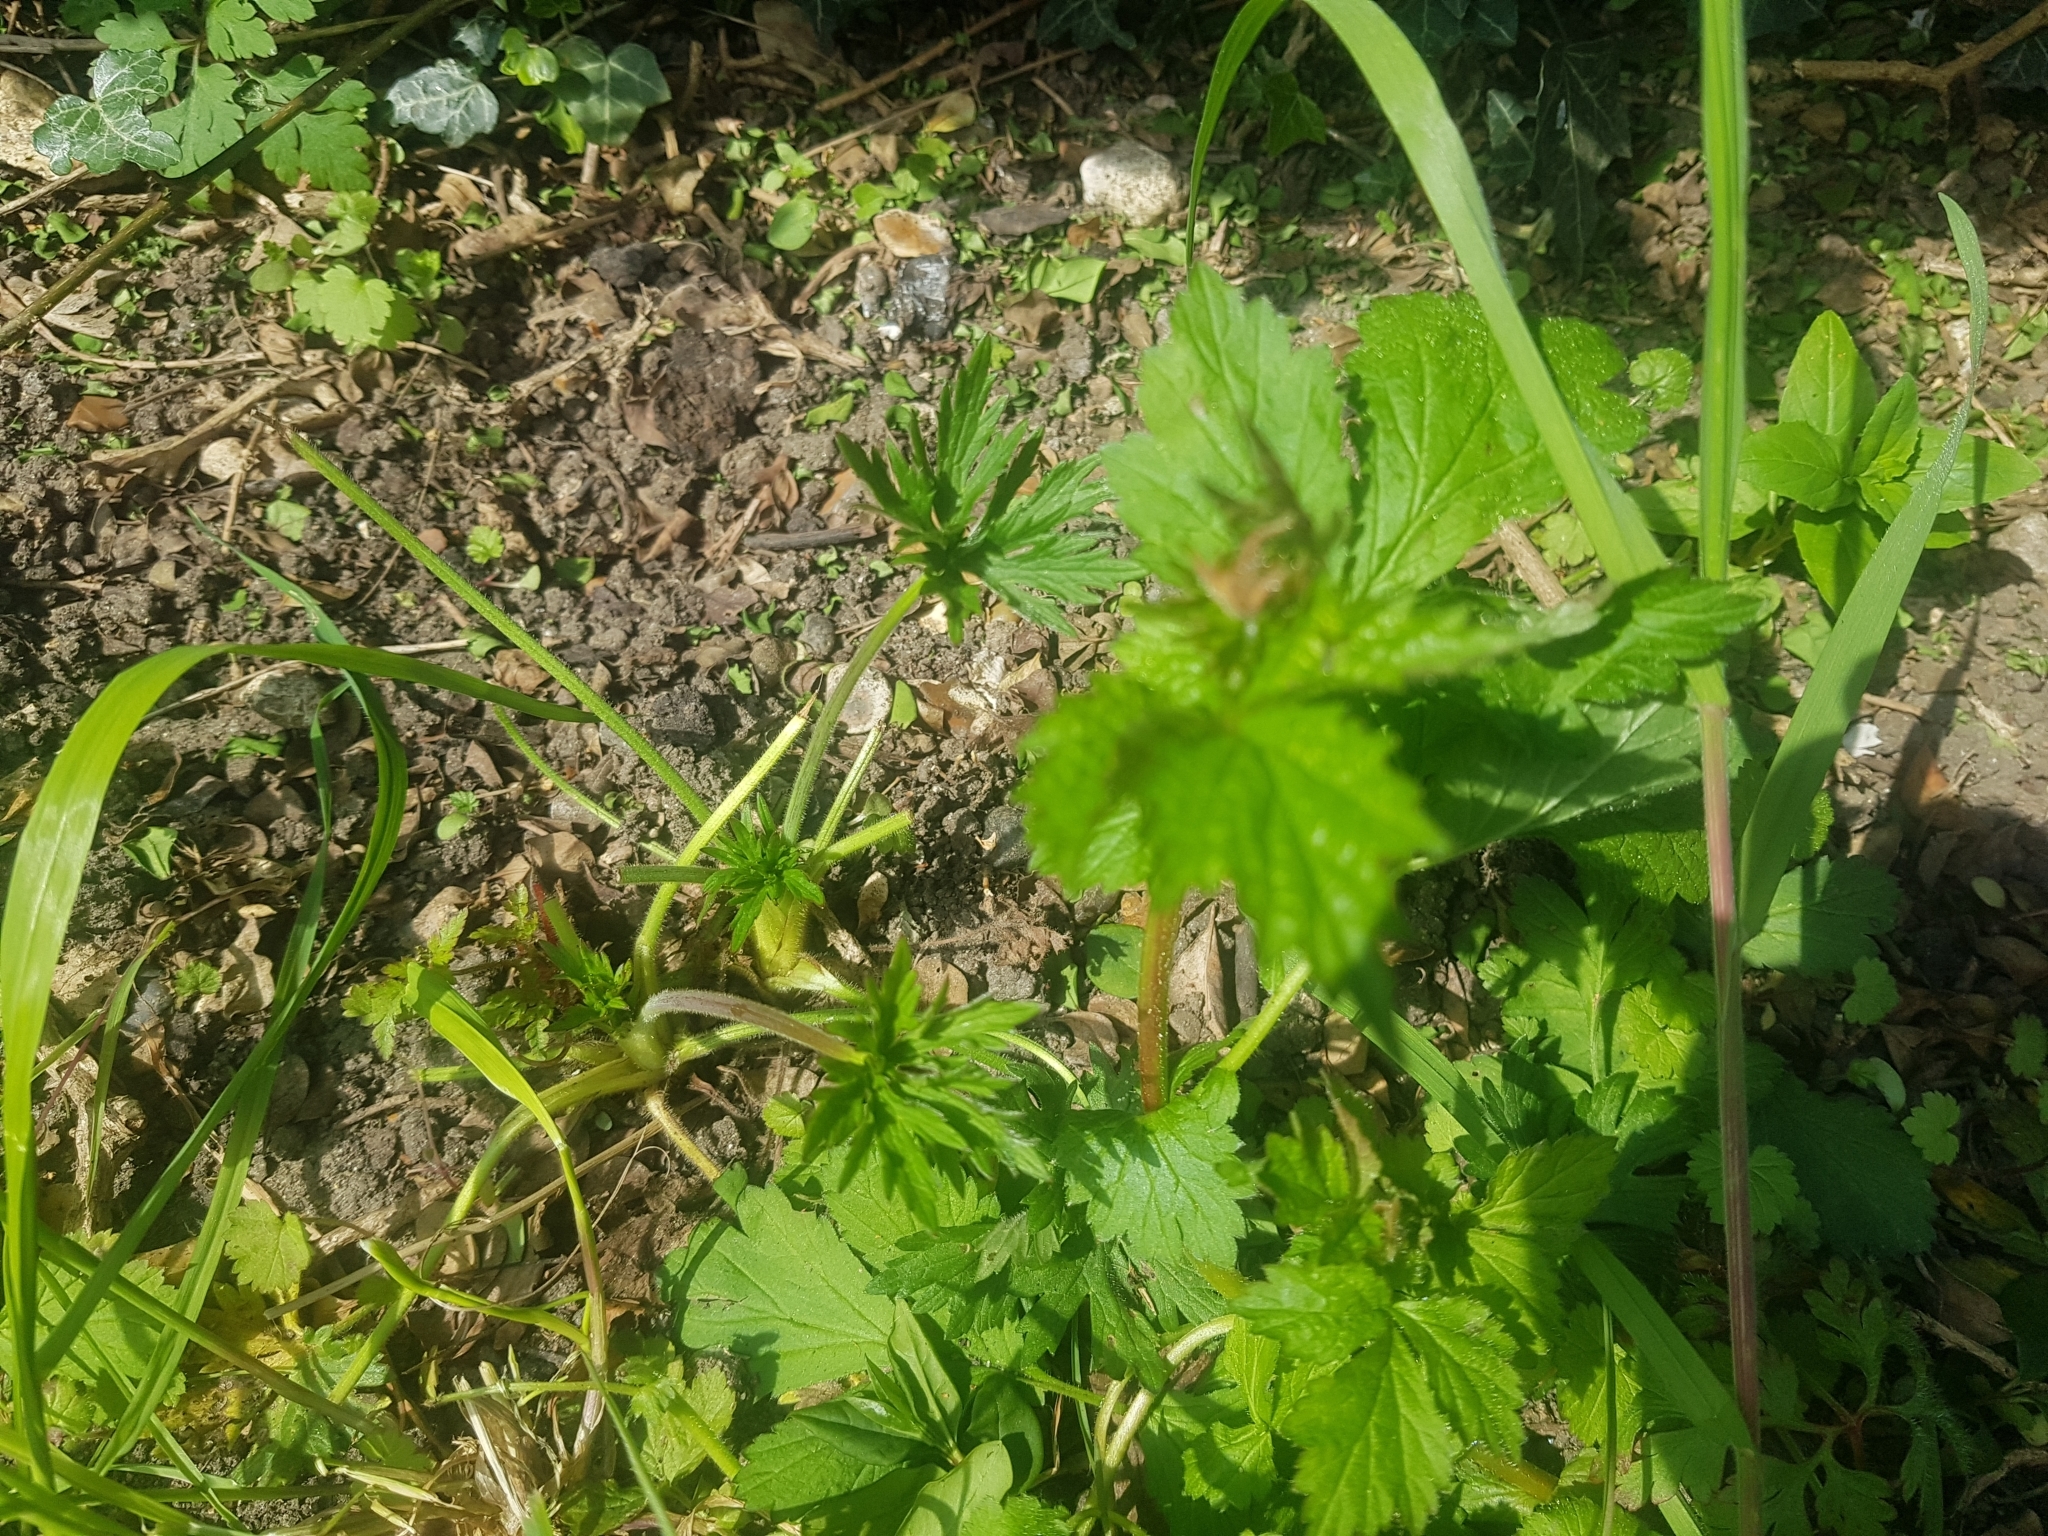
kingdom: Plantae
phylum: Tracheophyta
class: Magnoliopsida
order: Rosales
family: Rosaceae
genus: Geum
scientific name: Geum urbanum
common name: Wood avens
